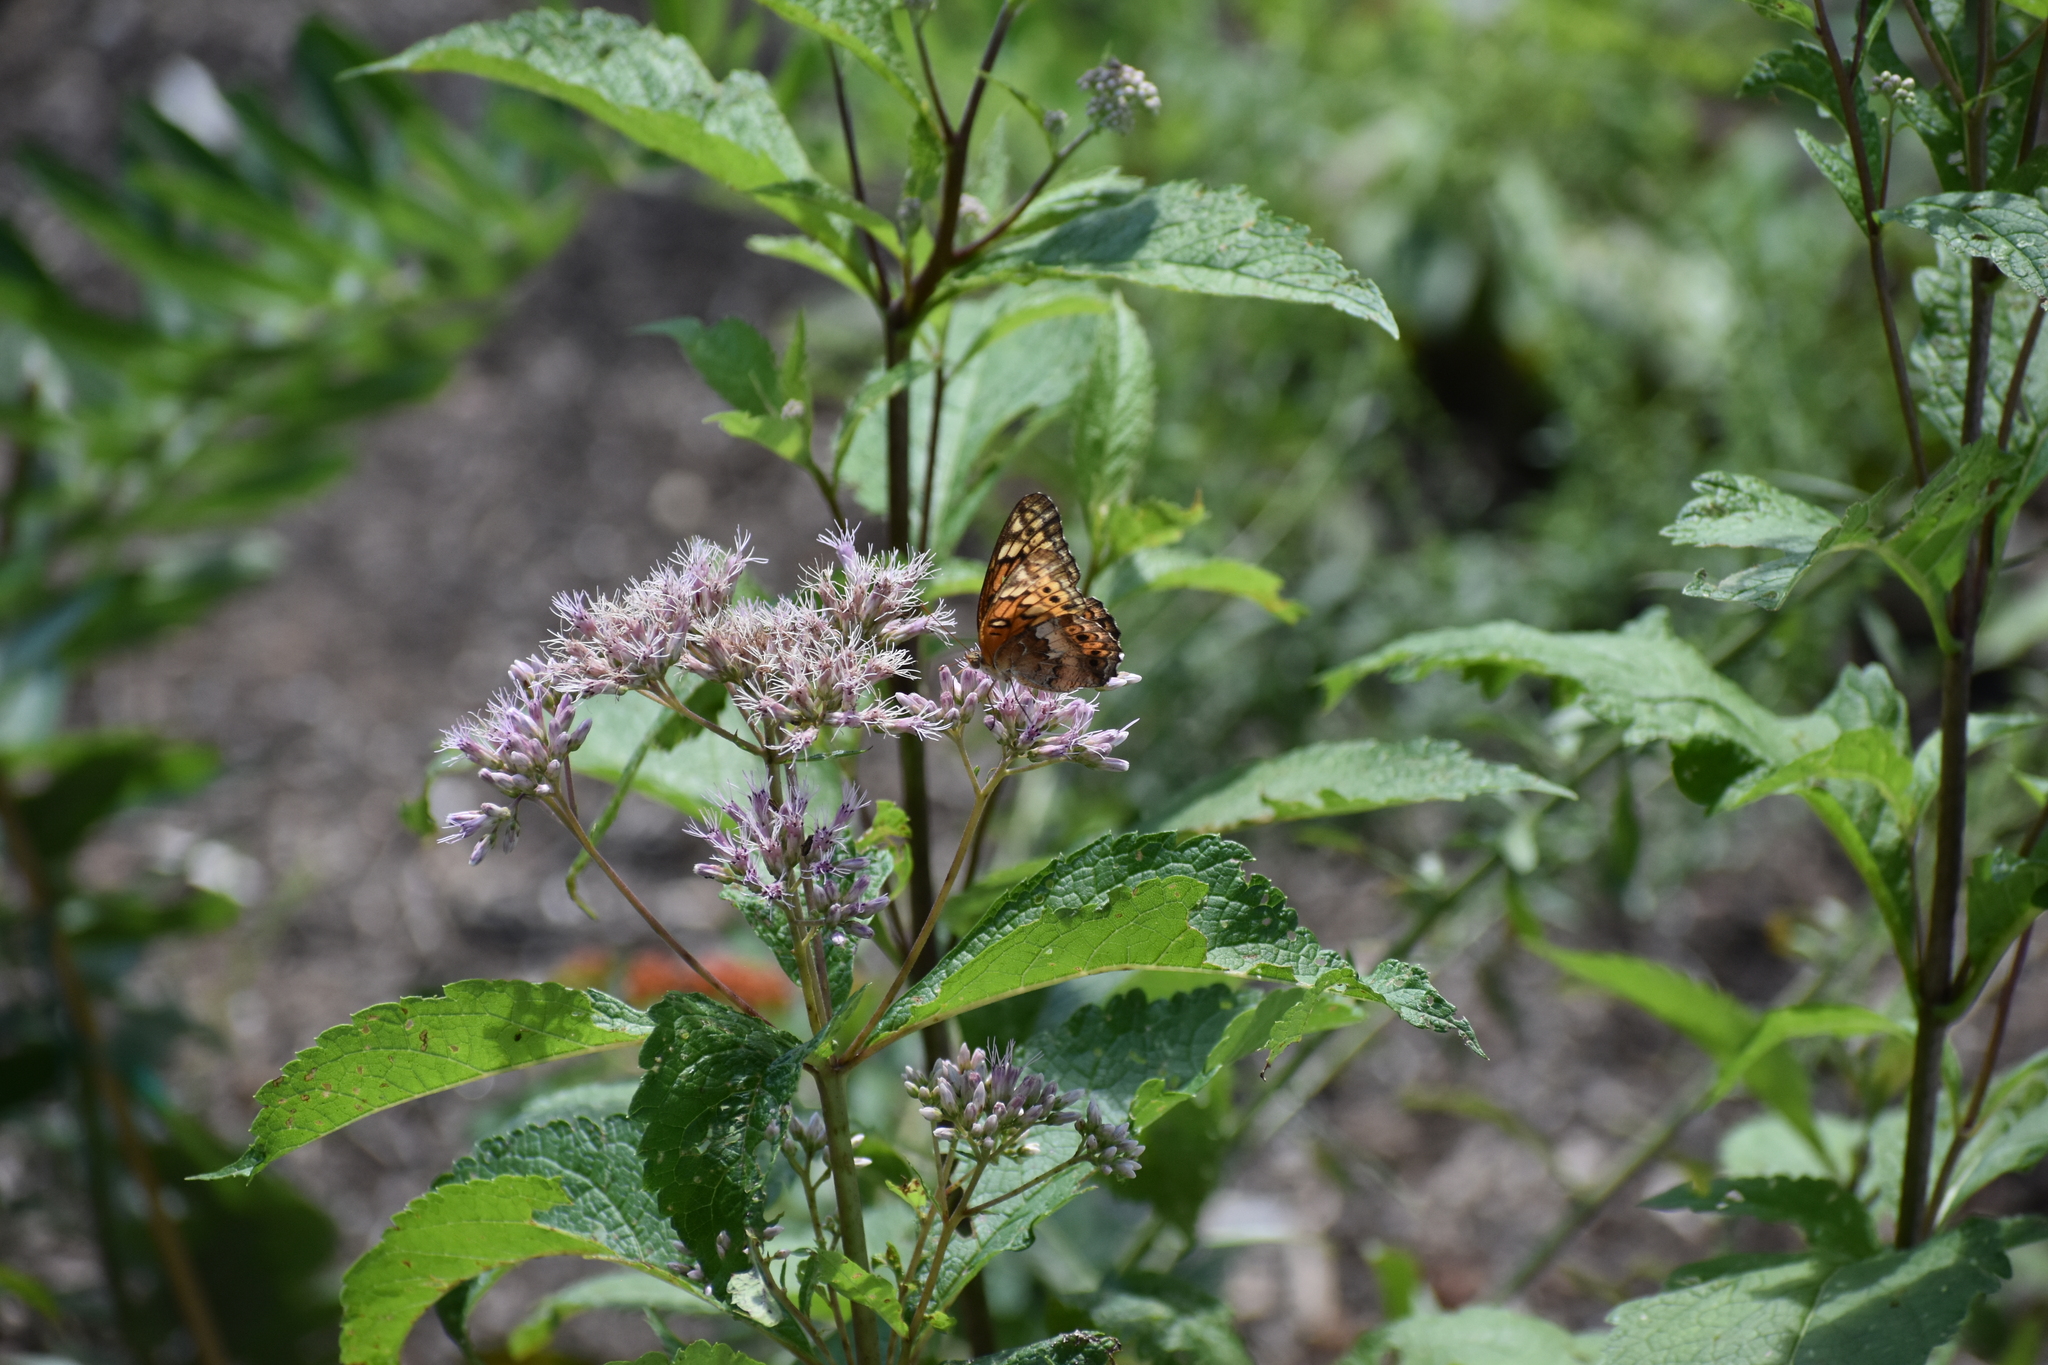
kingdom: Animalia
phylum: Arthropoda
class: Insecta
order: Lepidoptera
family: Nymphalidae
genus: Euptoieta
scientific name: Euptoieta claudia
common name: Variegated fritillary
